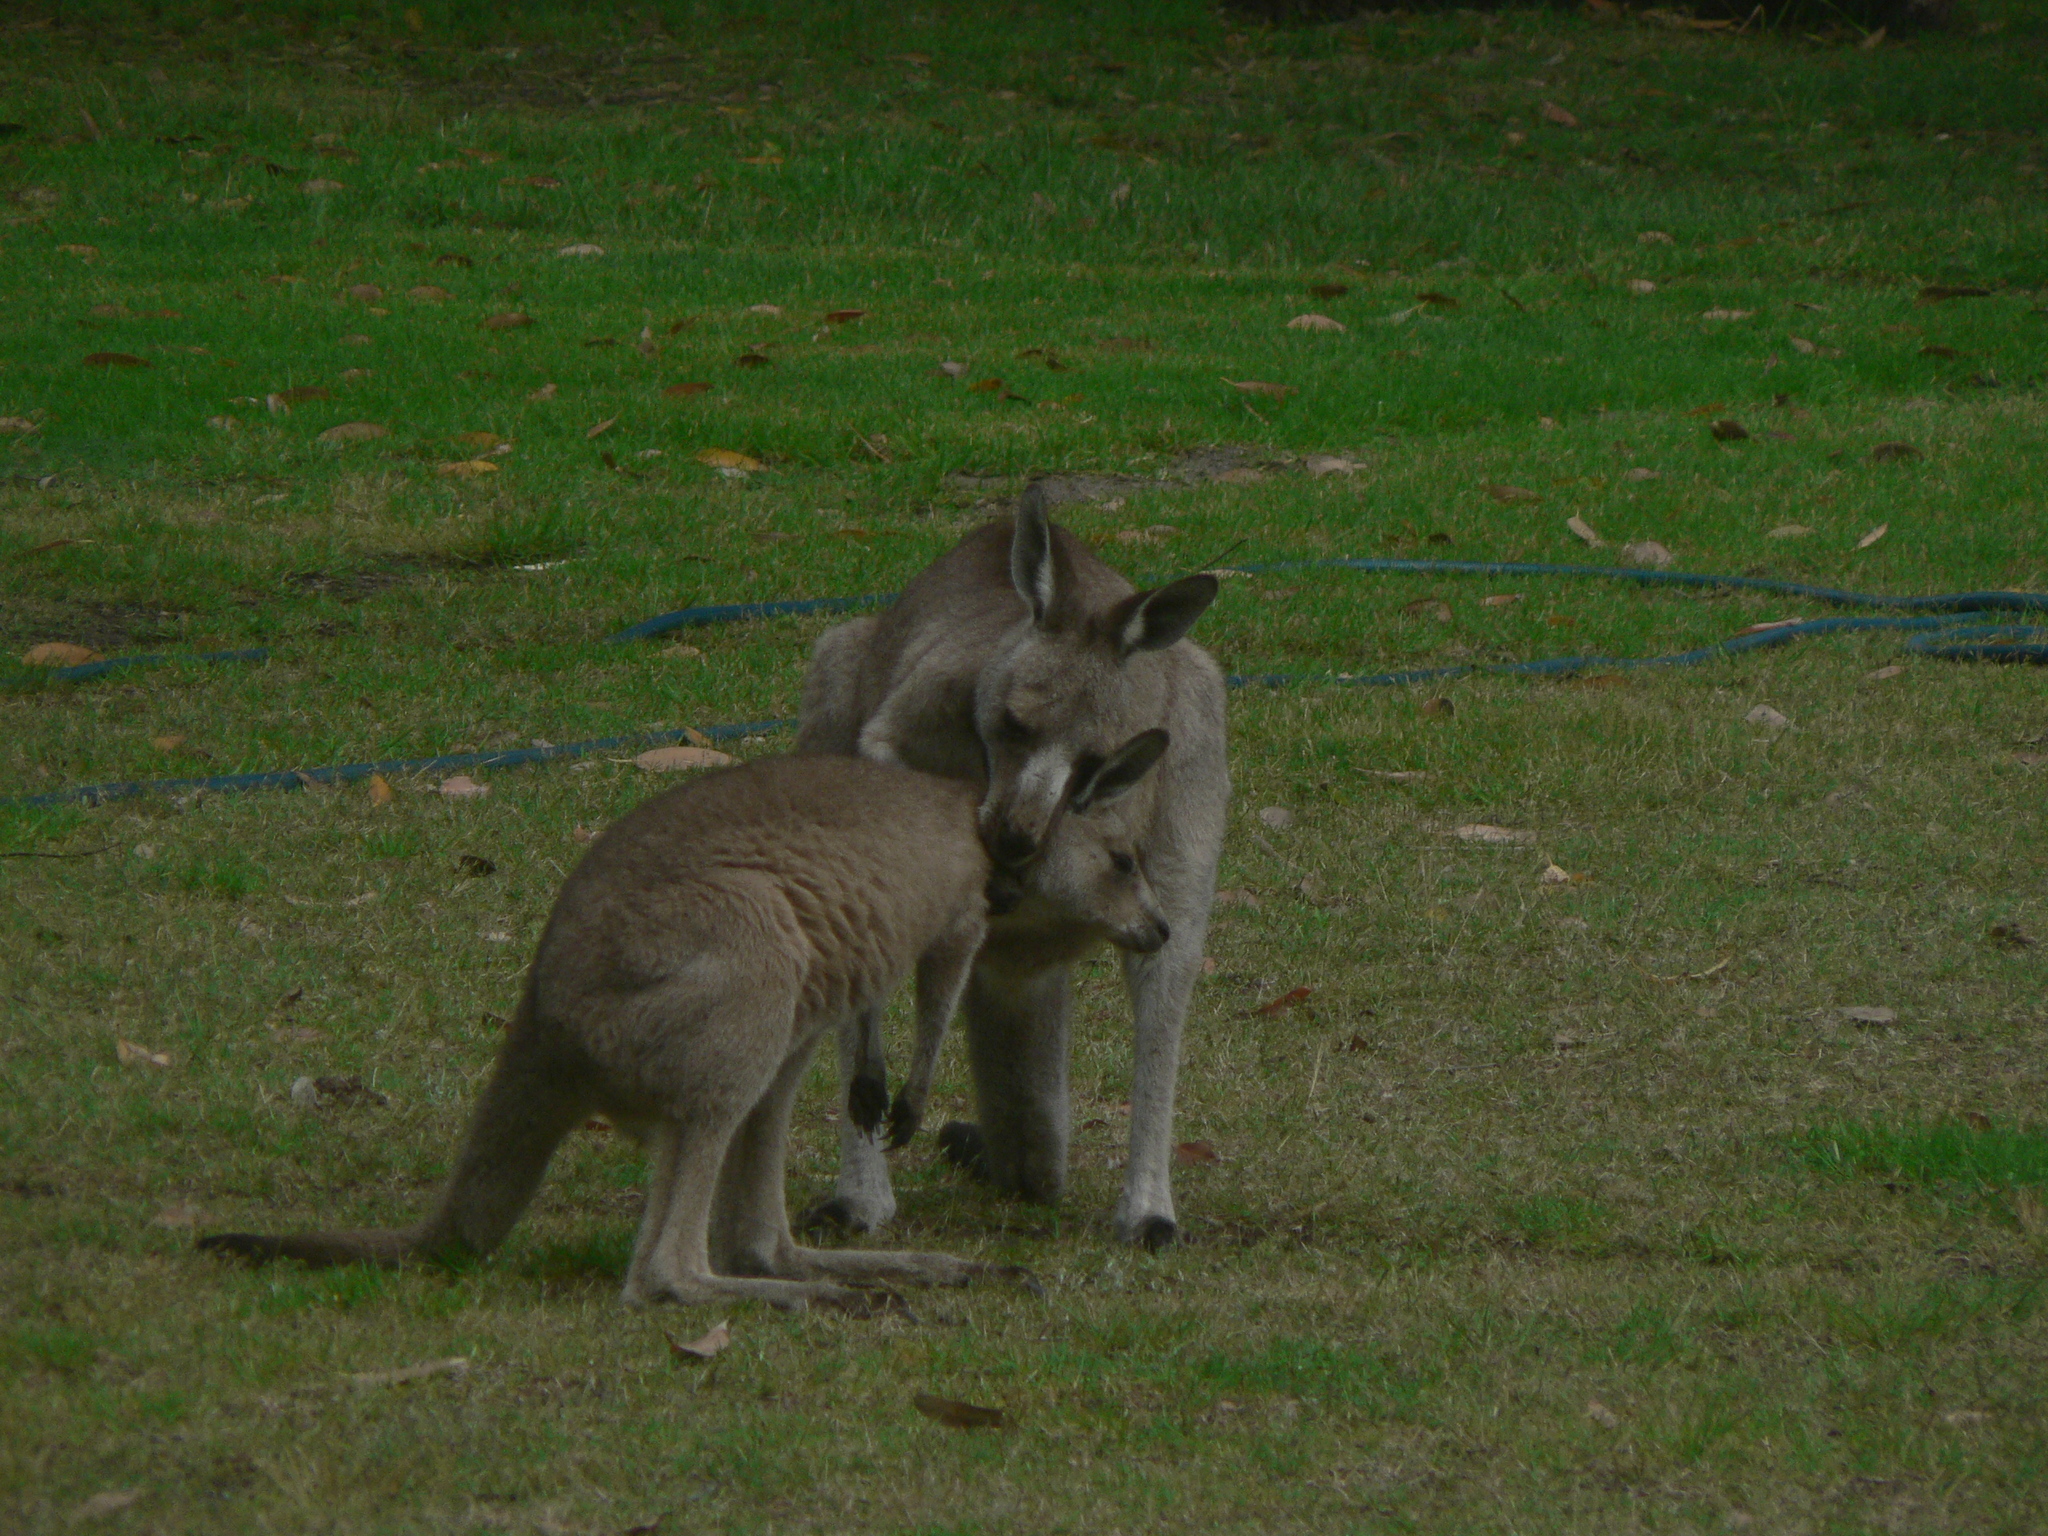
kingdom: Animalia
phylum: Chordata
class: Mammalia
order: Diprotodontia
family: Macropodidae
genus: Macropus
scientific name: Macropus giganteus
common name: Eastern grey kangaroo
